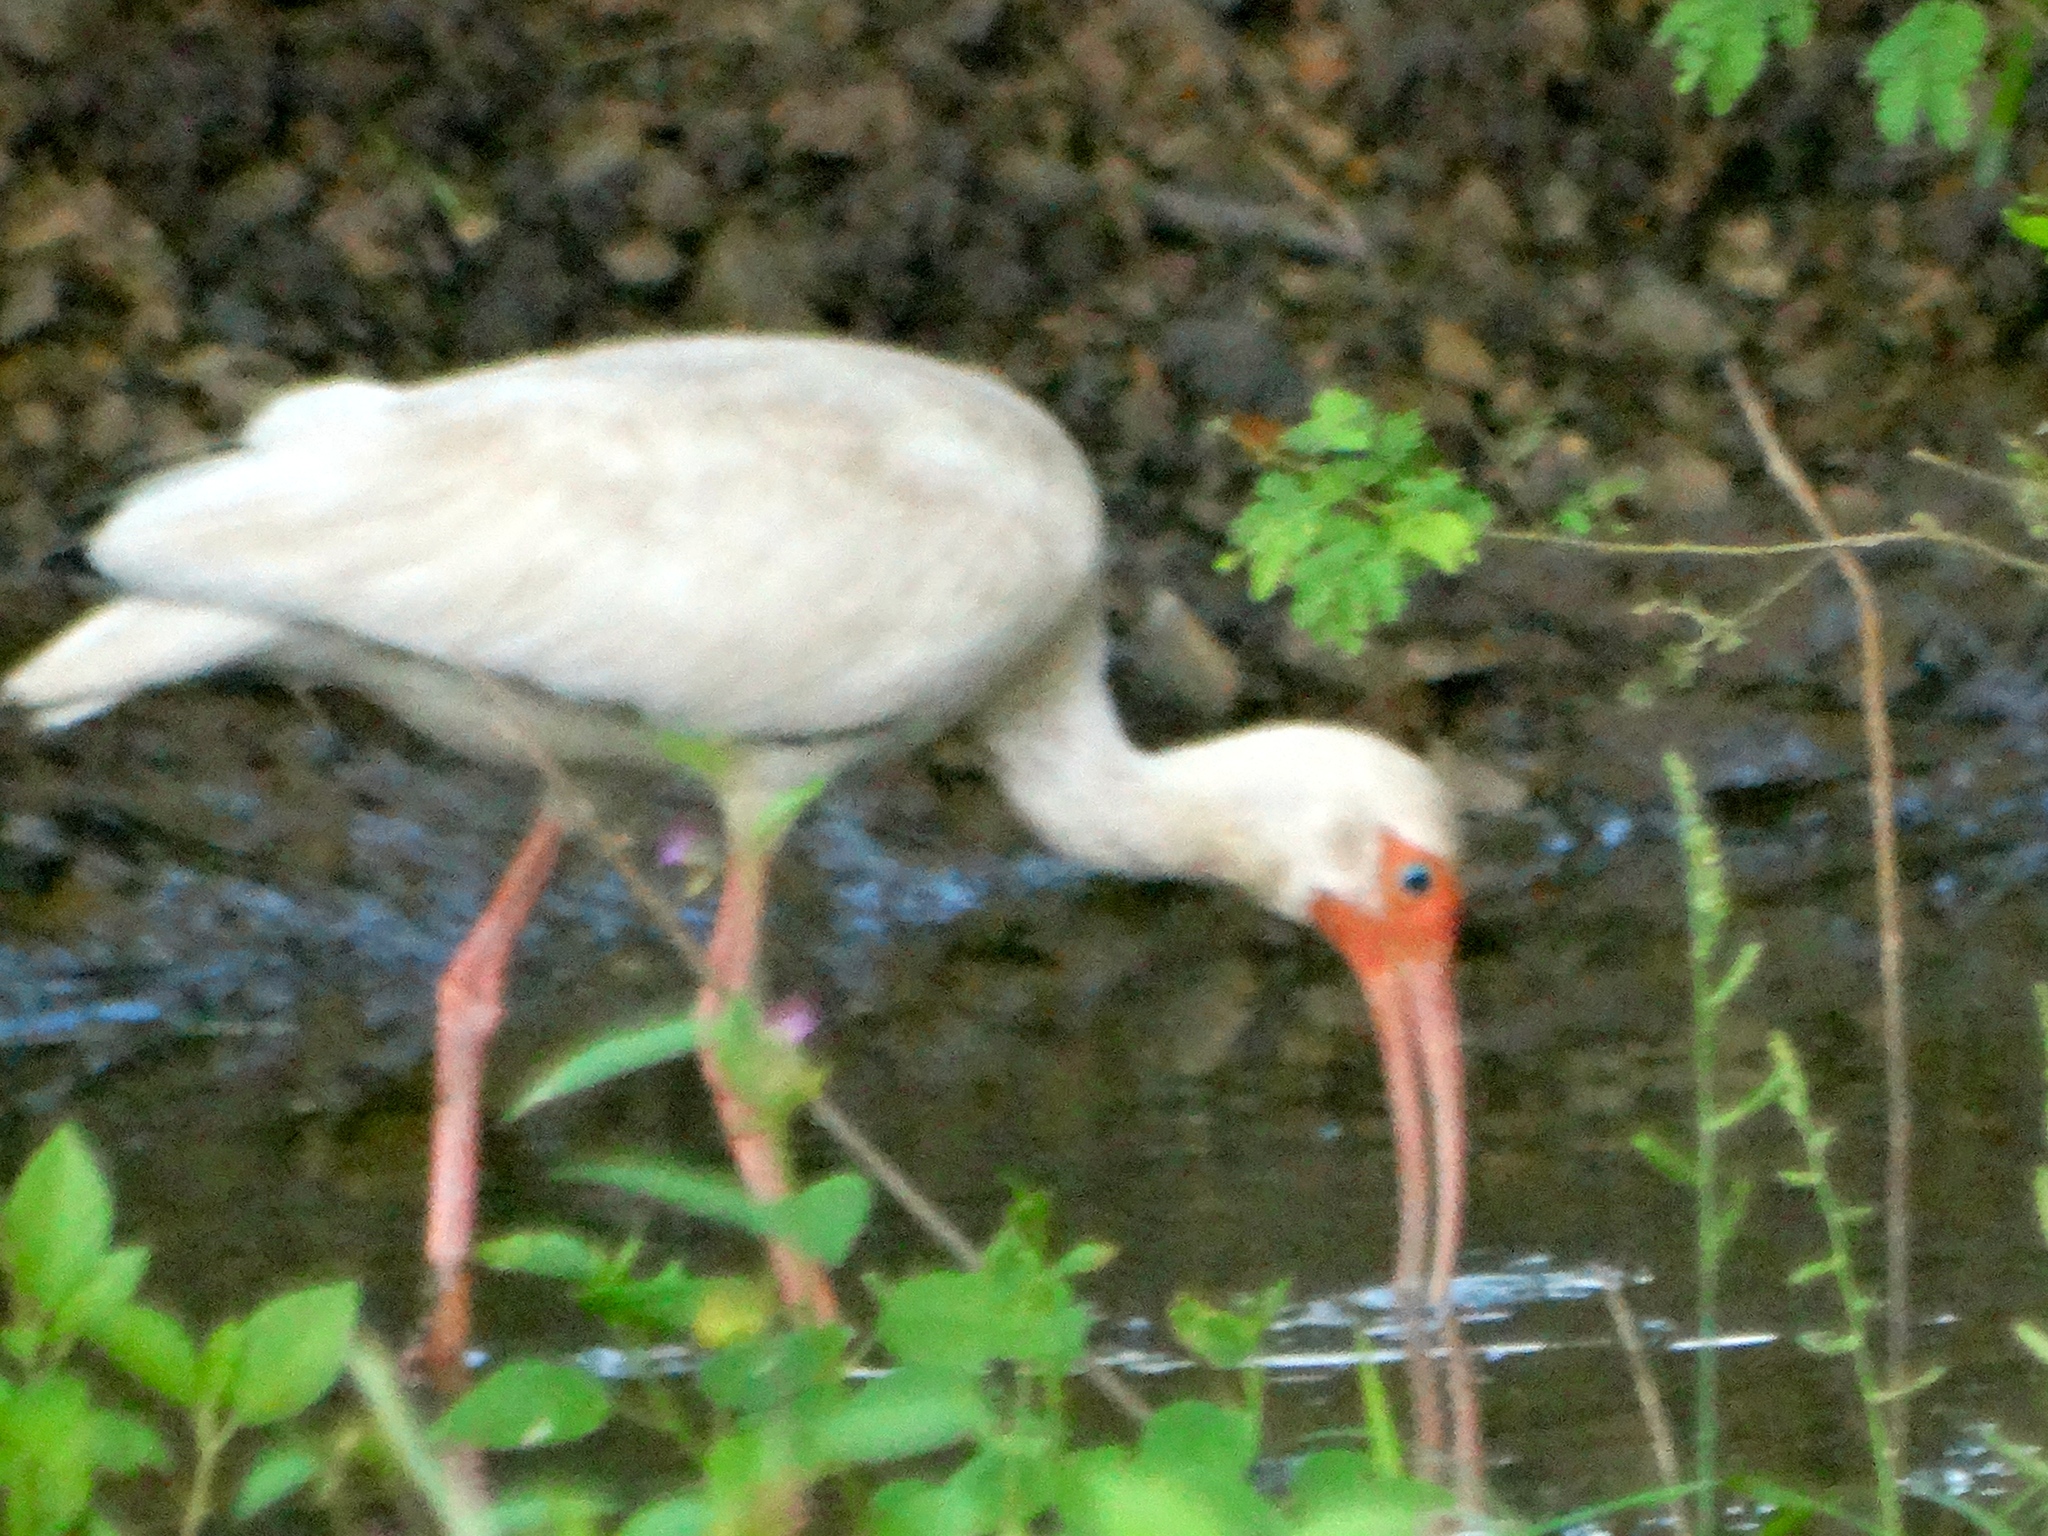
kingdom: Animalia
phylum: Chordata
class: Aves
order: Pelecaniformes
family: Threskiornithidae
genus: Eudocimus
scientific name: Eudocimus albus
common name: White ibis
